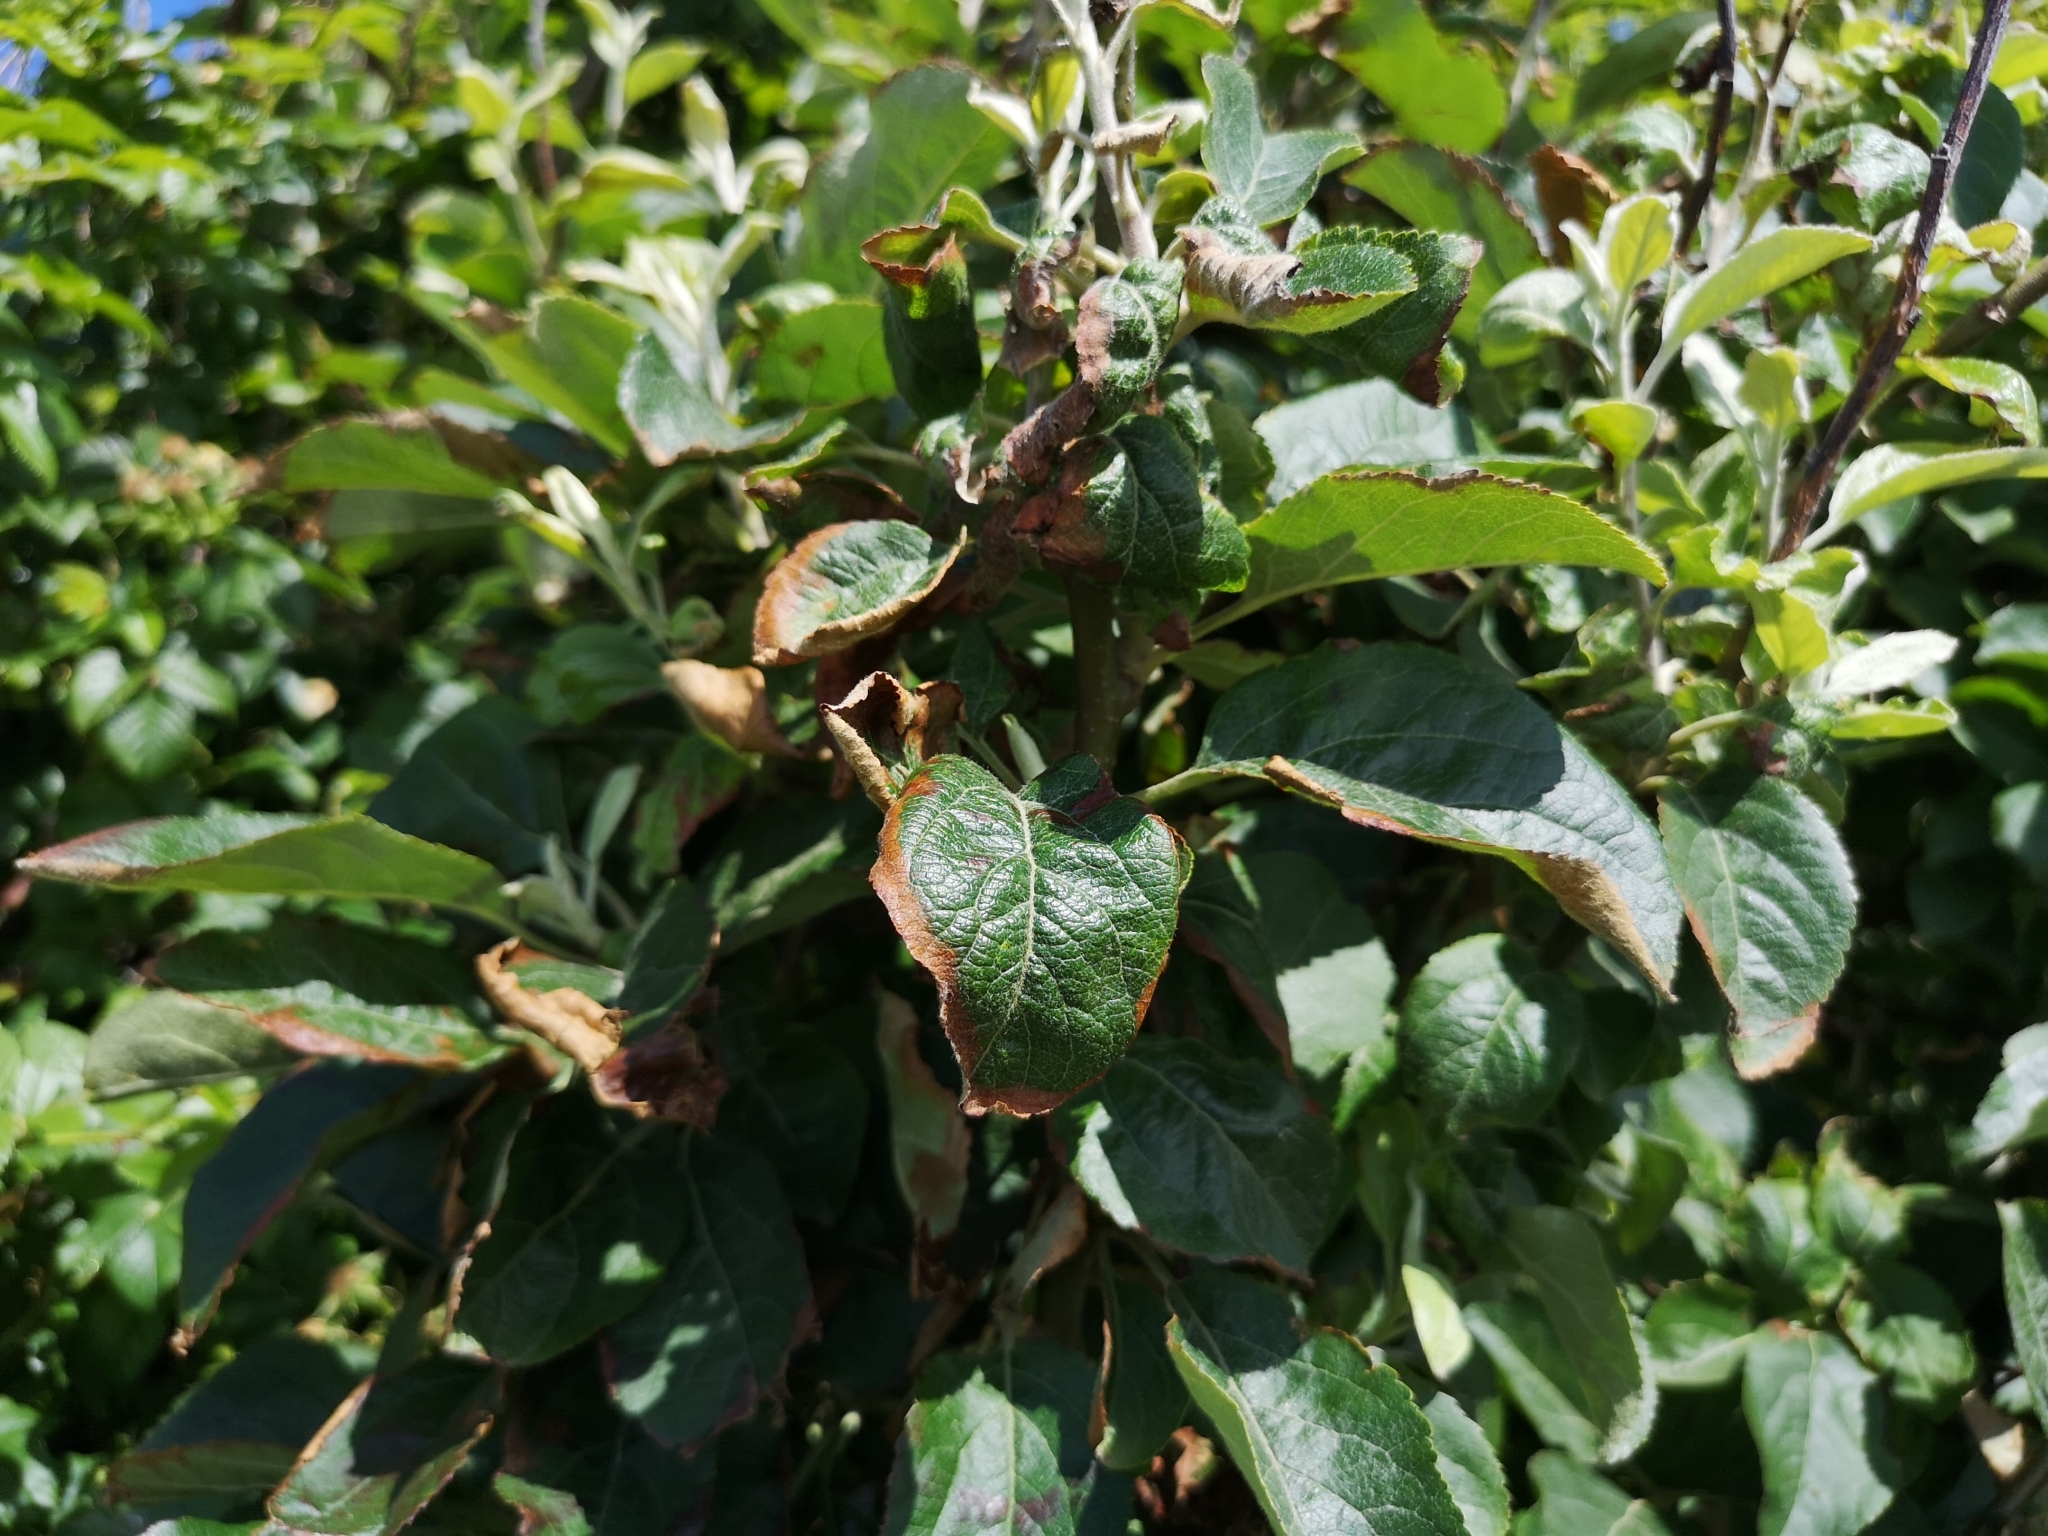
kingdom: Plantae
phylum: Tracheophyta
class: Magnoliopsida
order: Rosales
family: Rosaceae
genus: Malus
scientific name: Malus domestica
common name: Apple
